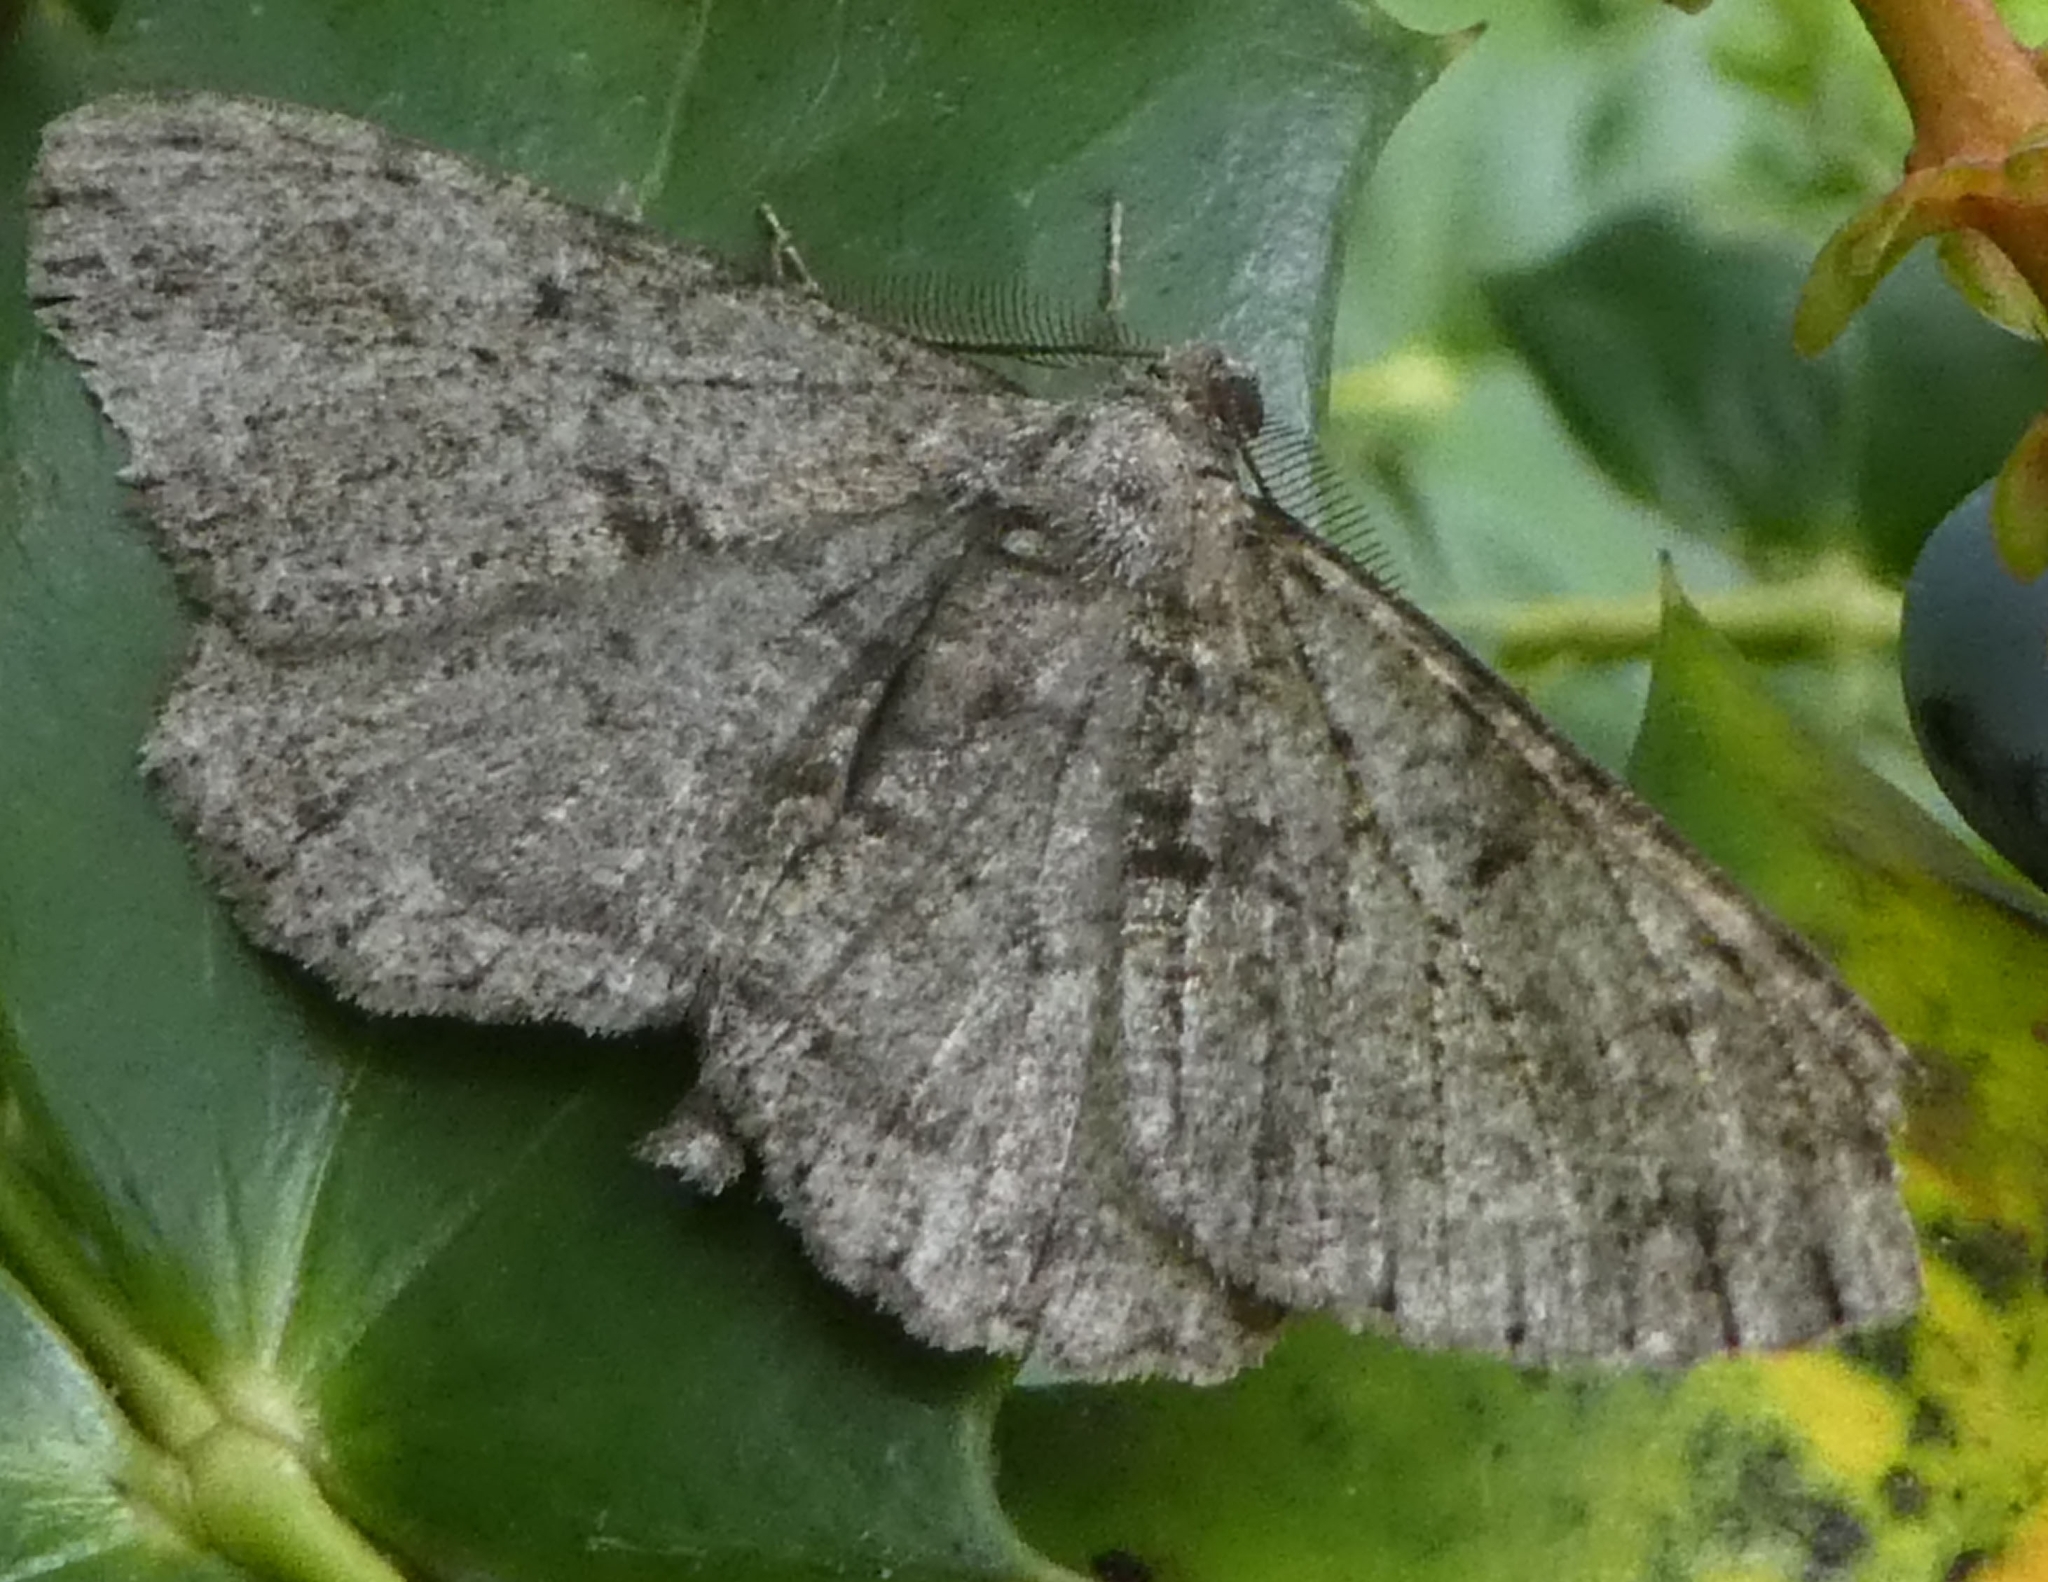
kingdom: Animalia
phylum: Arthropoda
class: Insecta
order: Lepidoptera
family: Geometridae
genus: Peribatodes
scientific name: Peribatodes rhomboidaria
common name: Willow beauty
